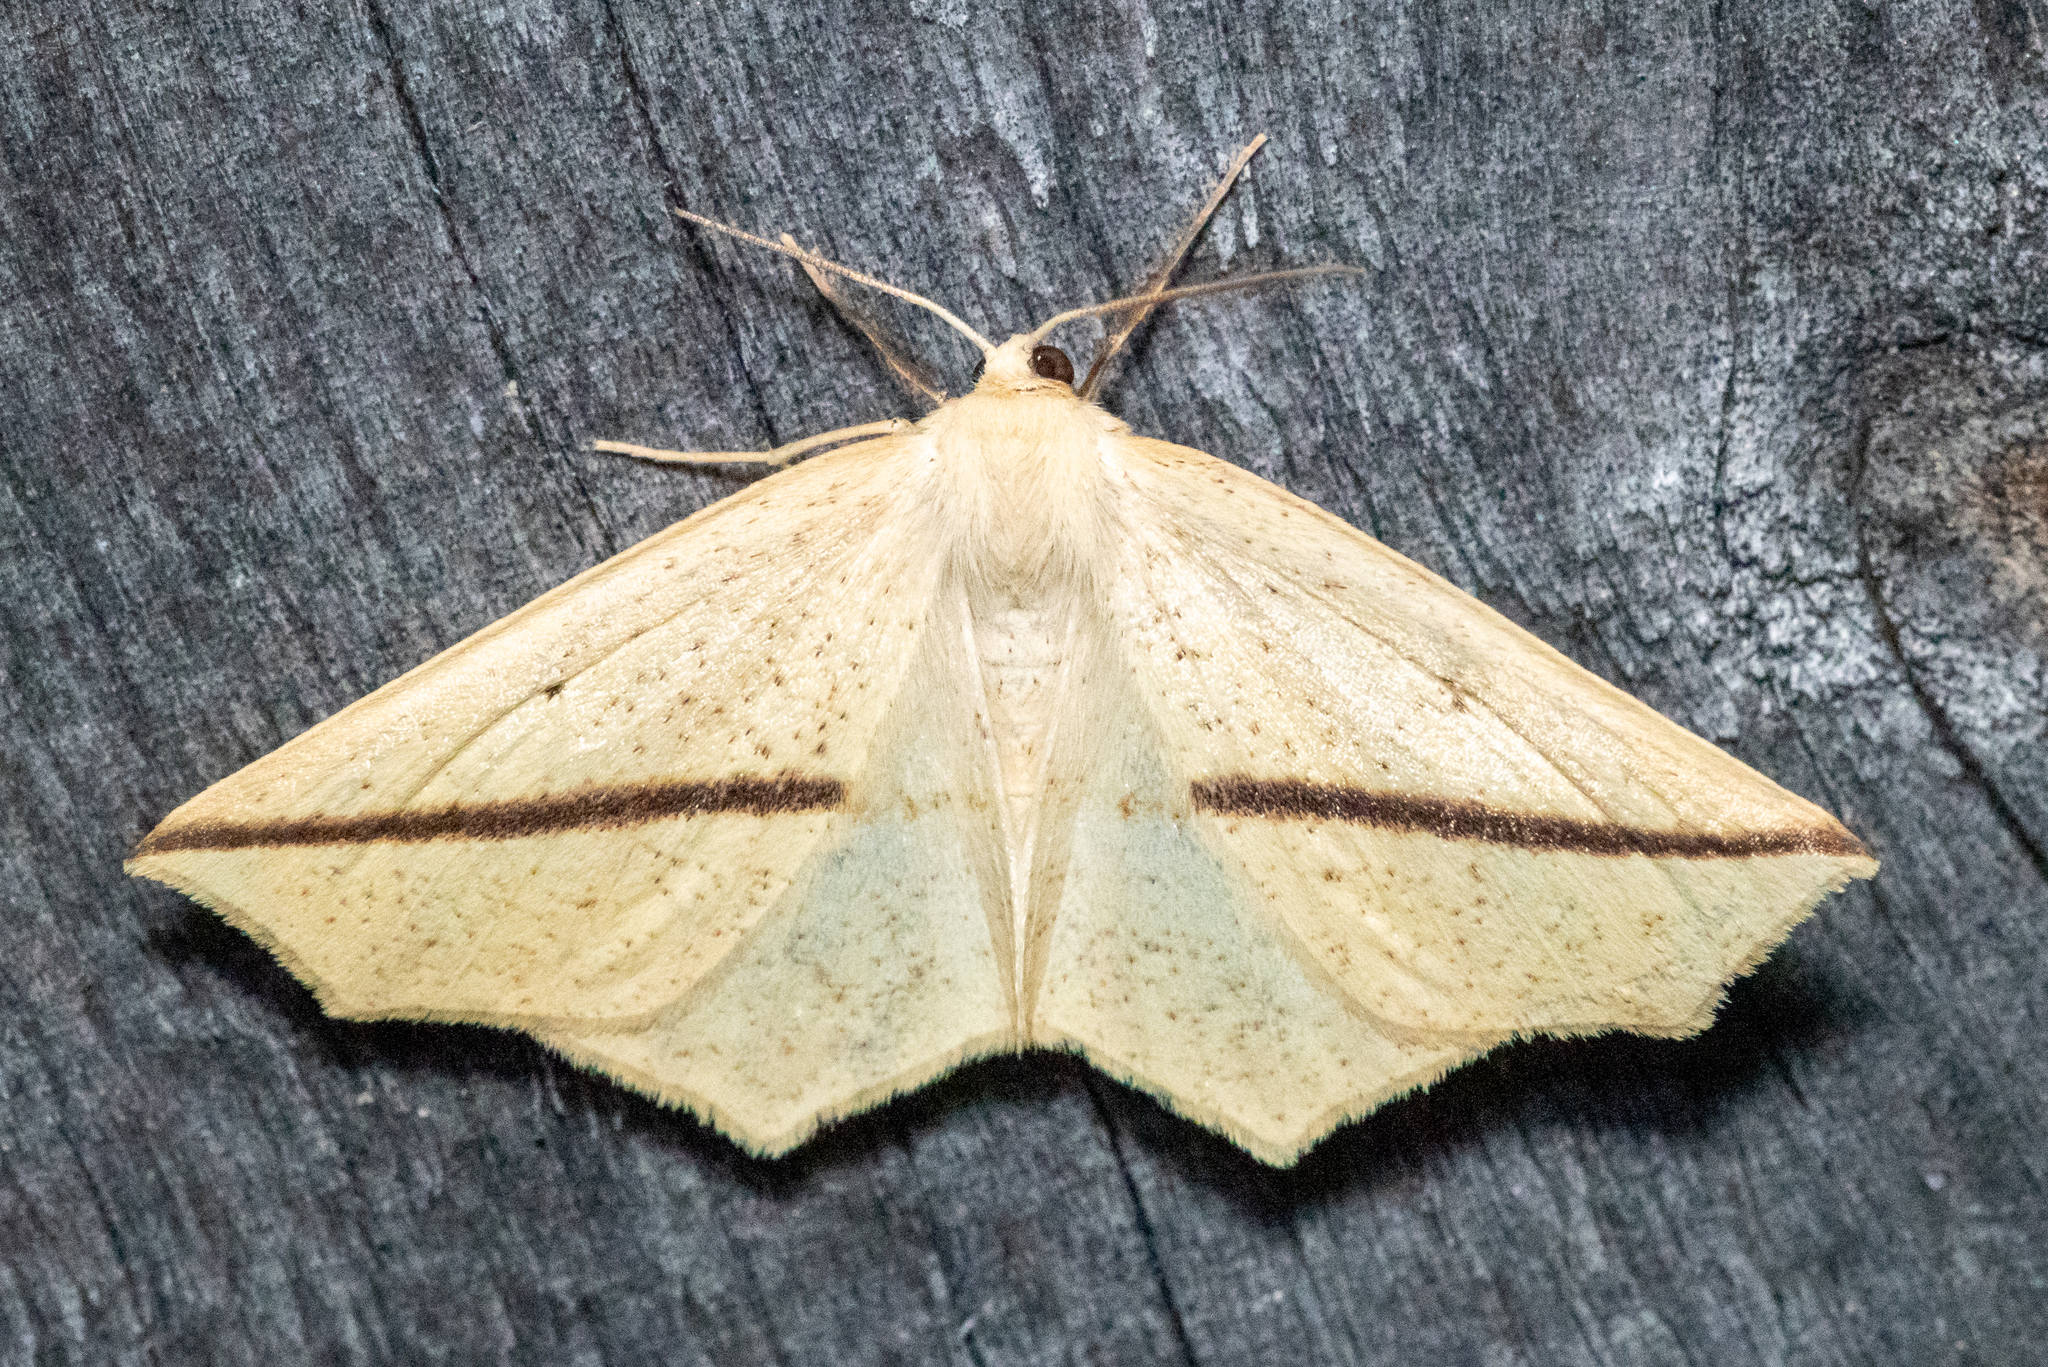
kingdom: Animalia
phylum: Arthropoda
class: Insecta
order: Lepidoptera
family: Geometridae
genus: Tetracis
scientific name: Tetracis crocallata
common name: Yellow slant-line
